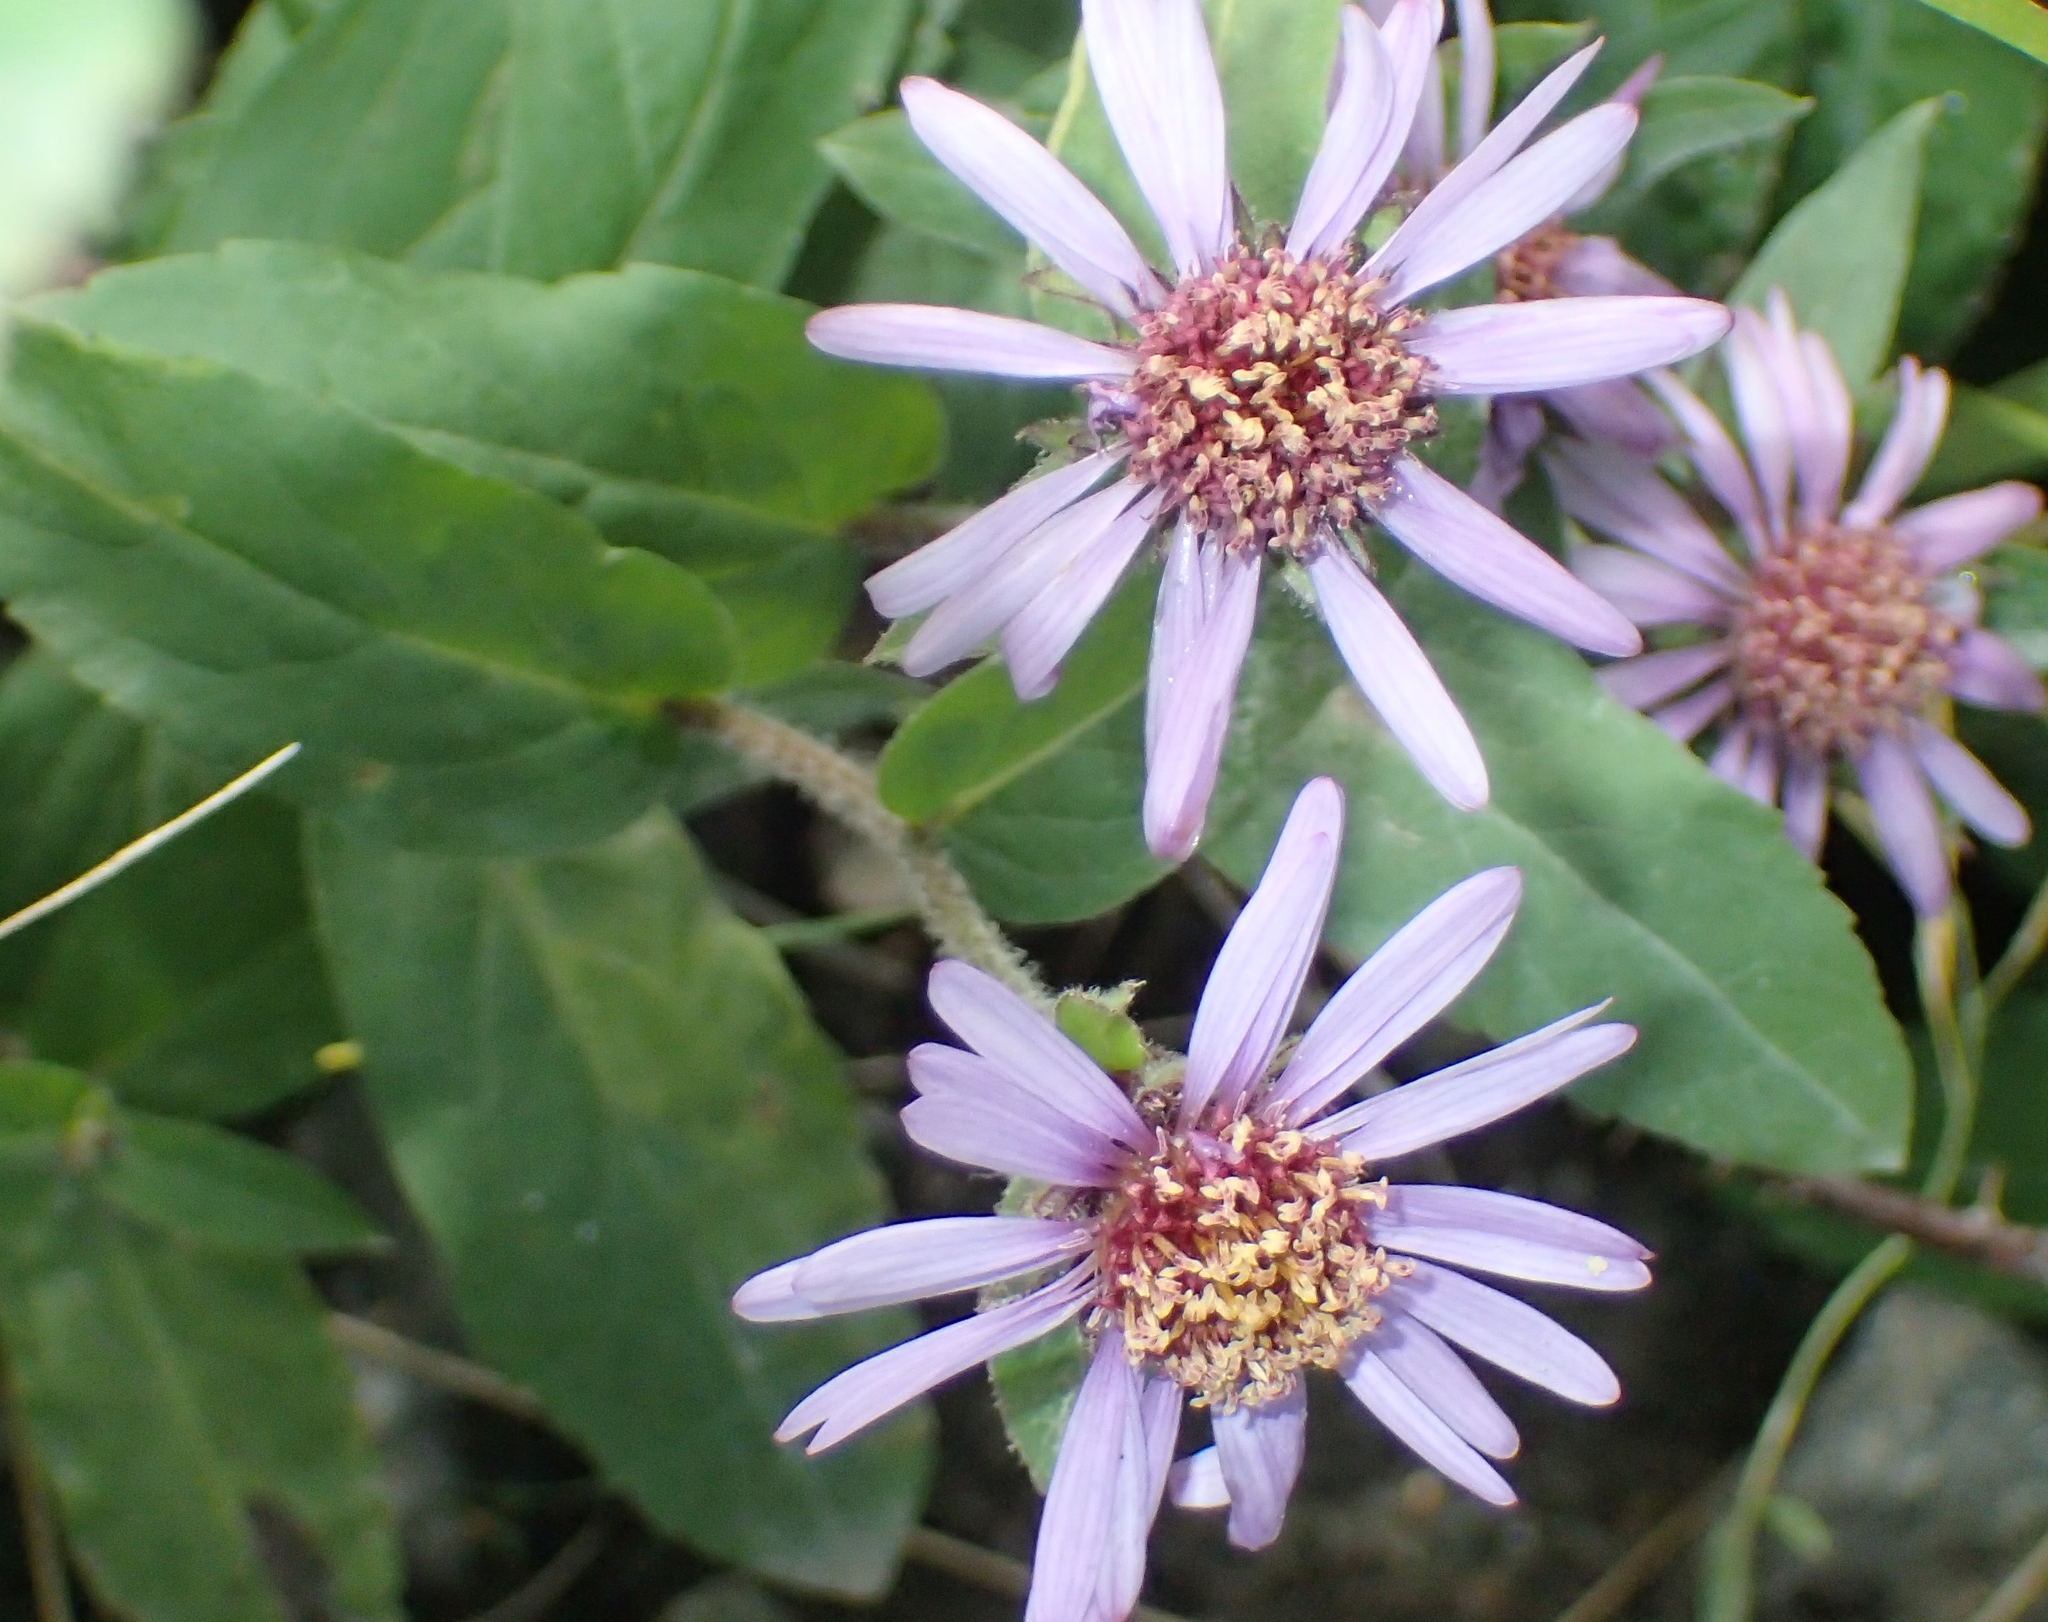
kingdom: Plantae
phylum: Tracheophyta
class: Magnoliopsida
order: Asterales
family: Asteraceae
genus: Eurybia
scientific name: Eurybia sibirica
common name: Arctic aster
